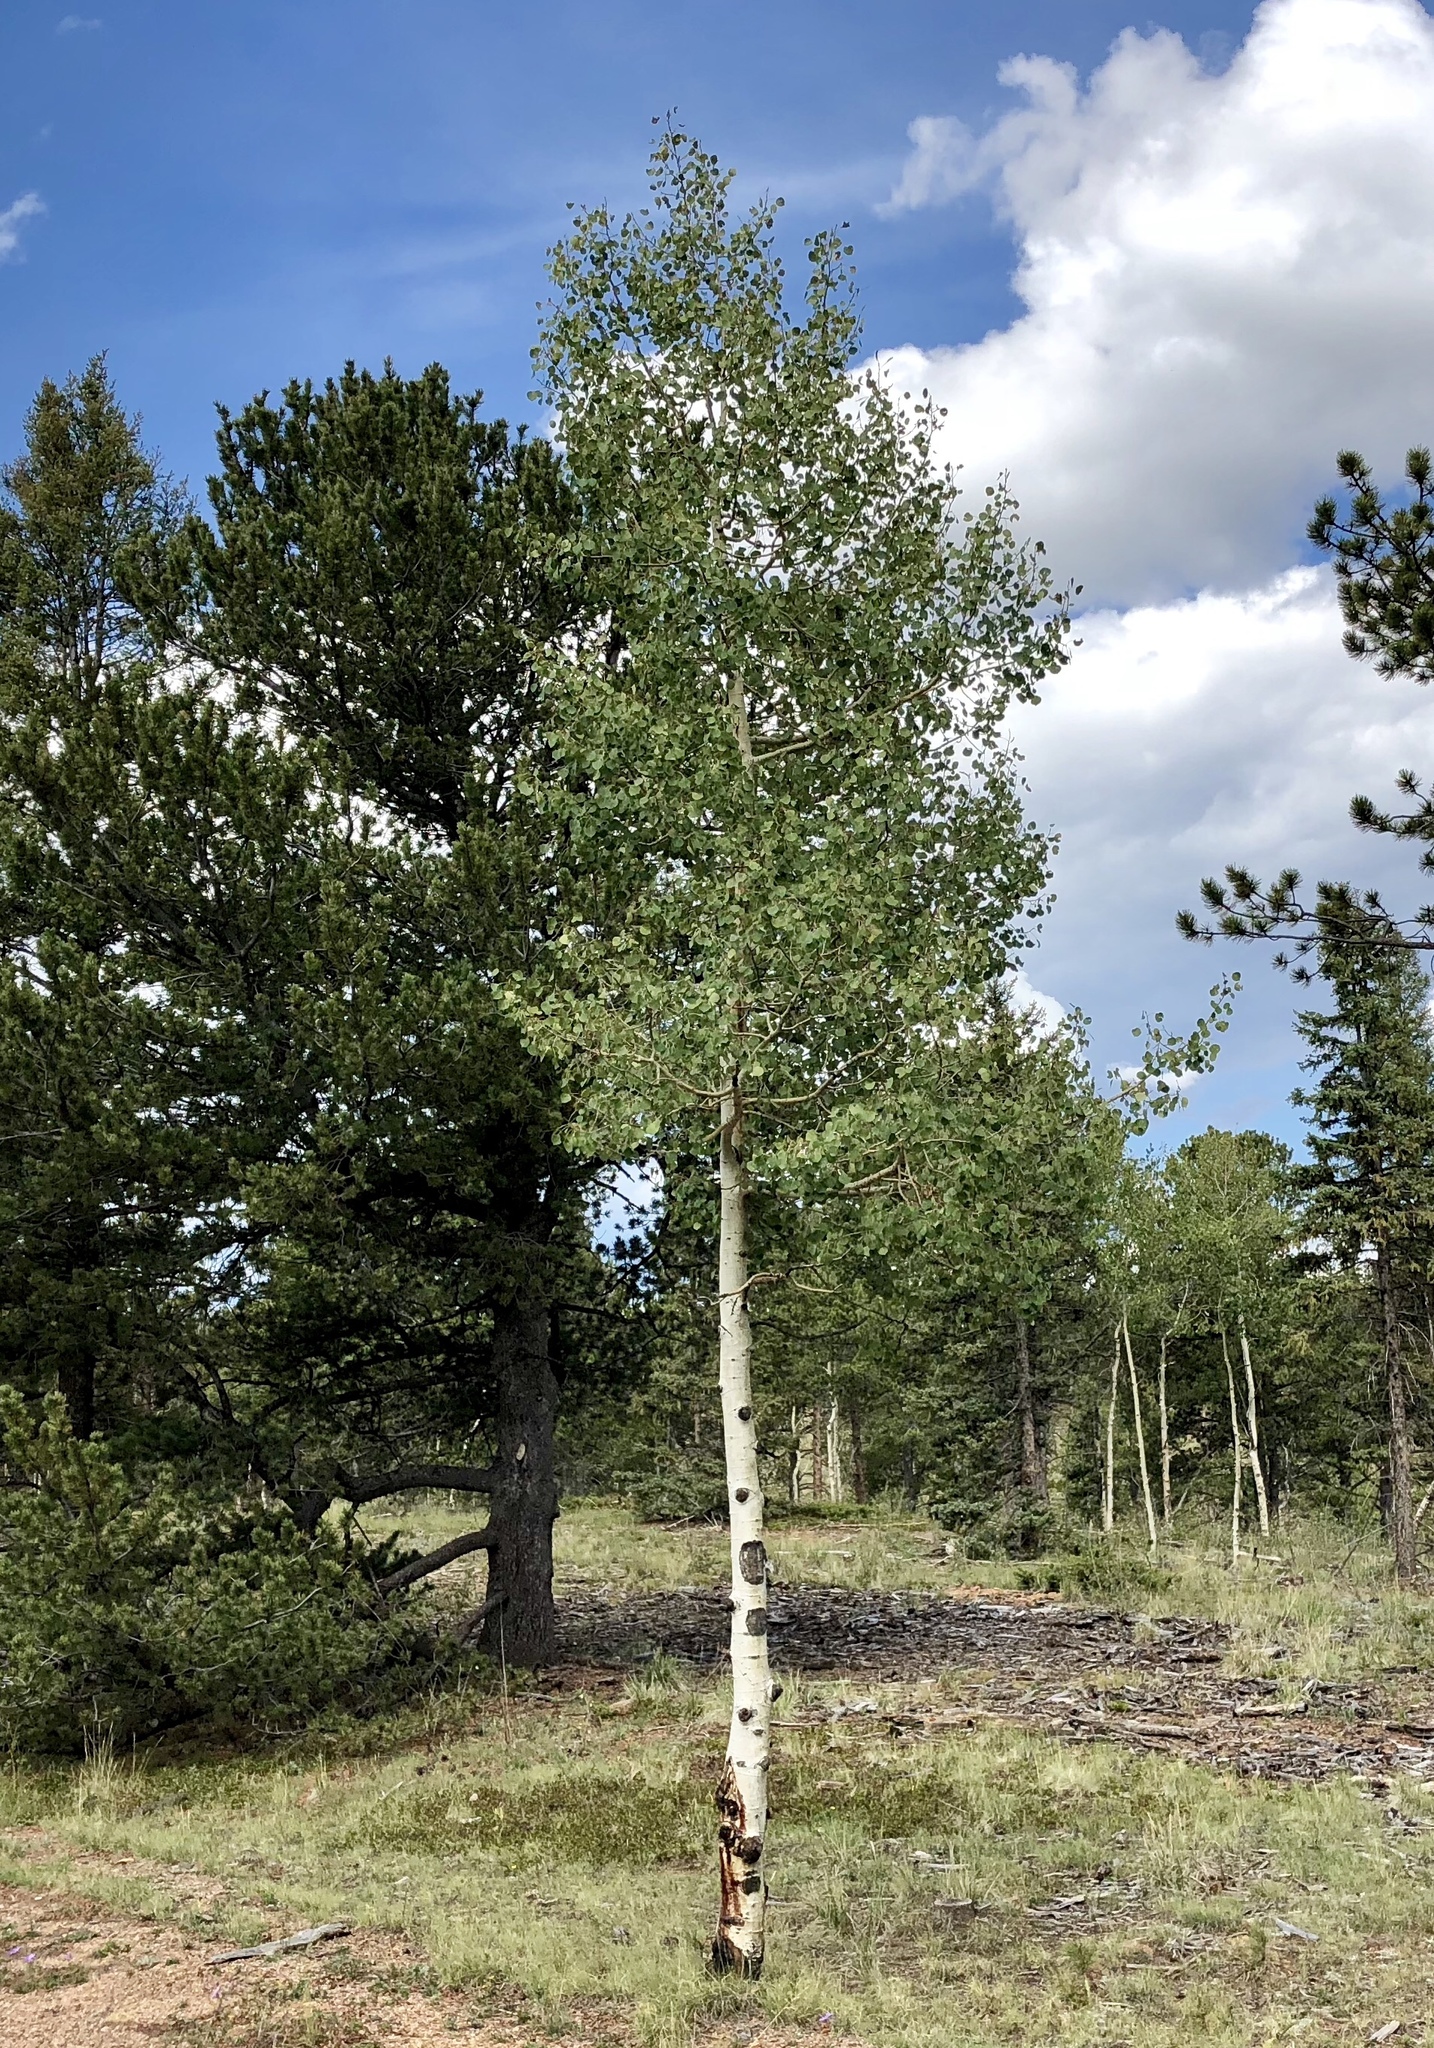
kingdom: Plantae
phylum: Tracheophyta
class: Magnoliopsida
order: Malpighiales
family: Salicaceae
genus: Populus
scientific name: Populus tremuloides
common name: Quaking aspen
